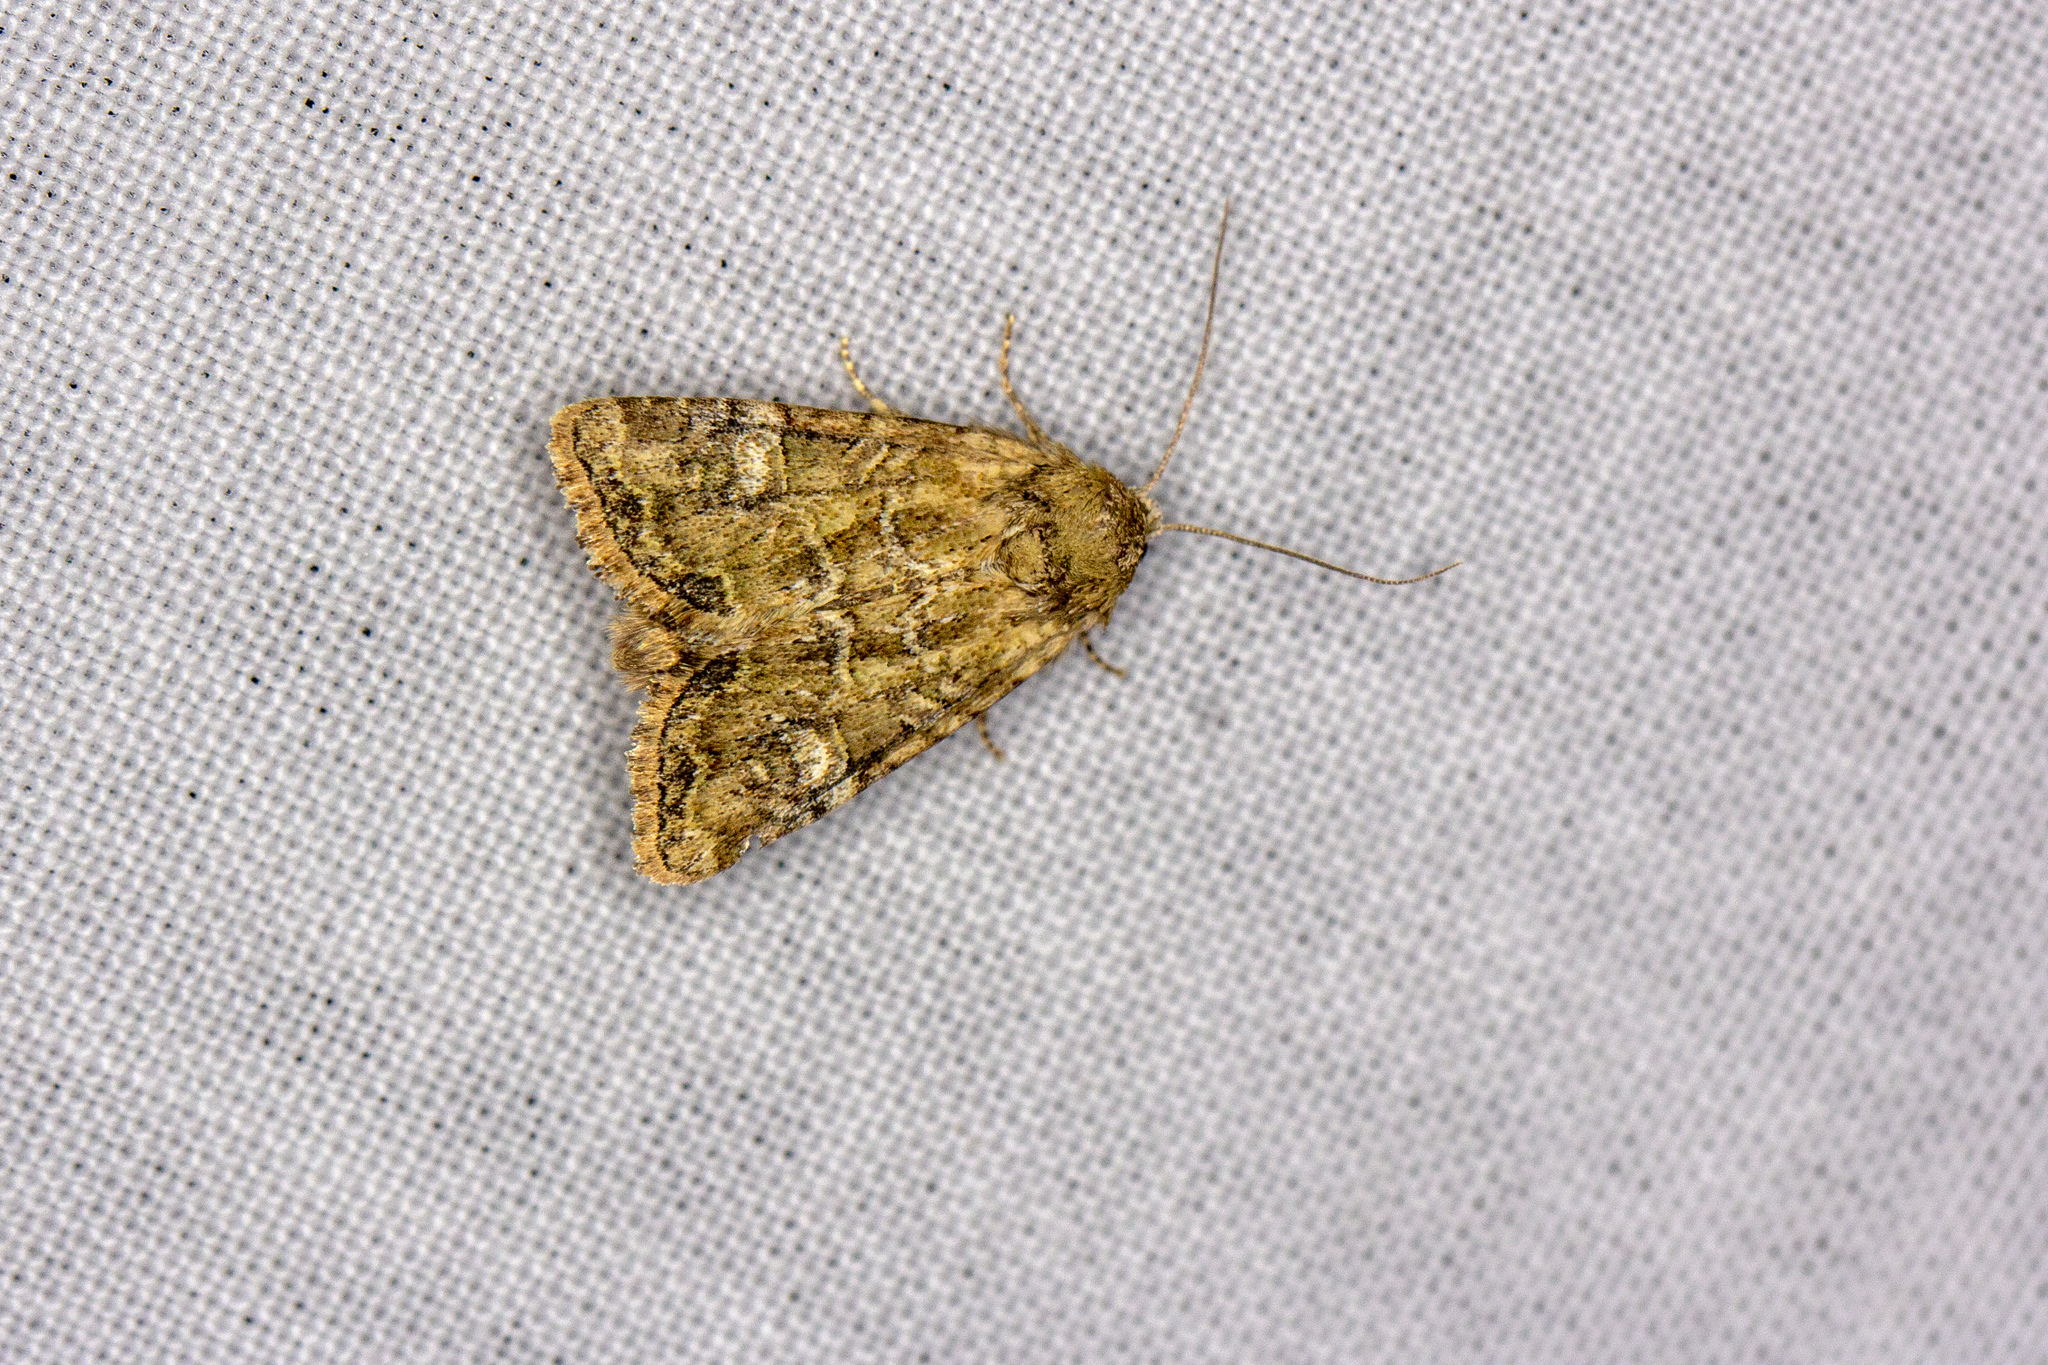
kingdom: Animalia
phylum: Arthropoda
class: Insecta
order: Lepidoptera
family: Noctuidae
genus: Mesoligia
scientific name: Mesoligia furuncula
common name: Cloaked minor
